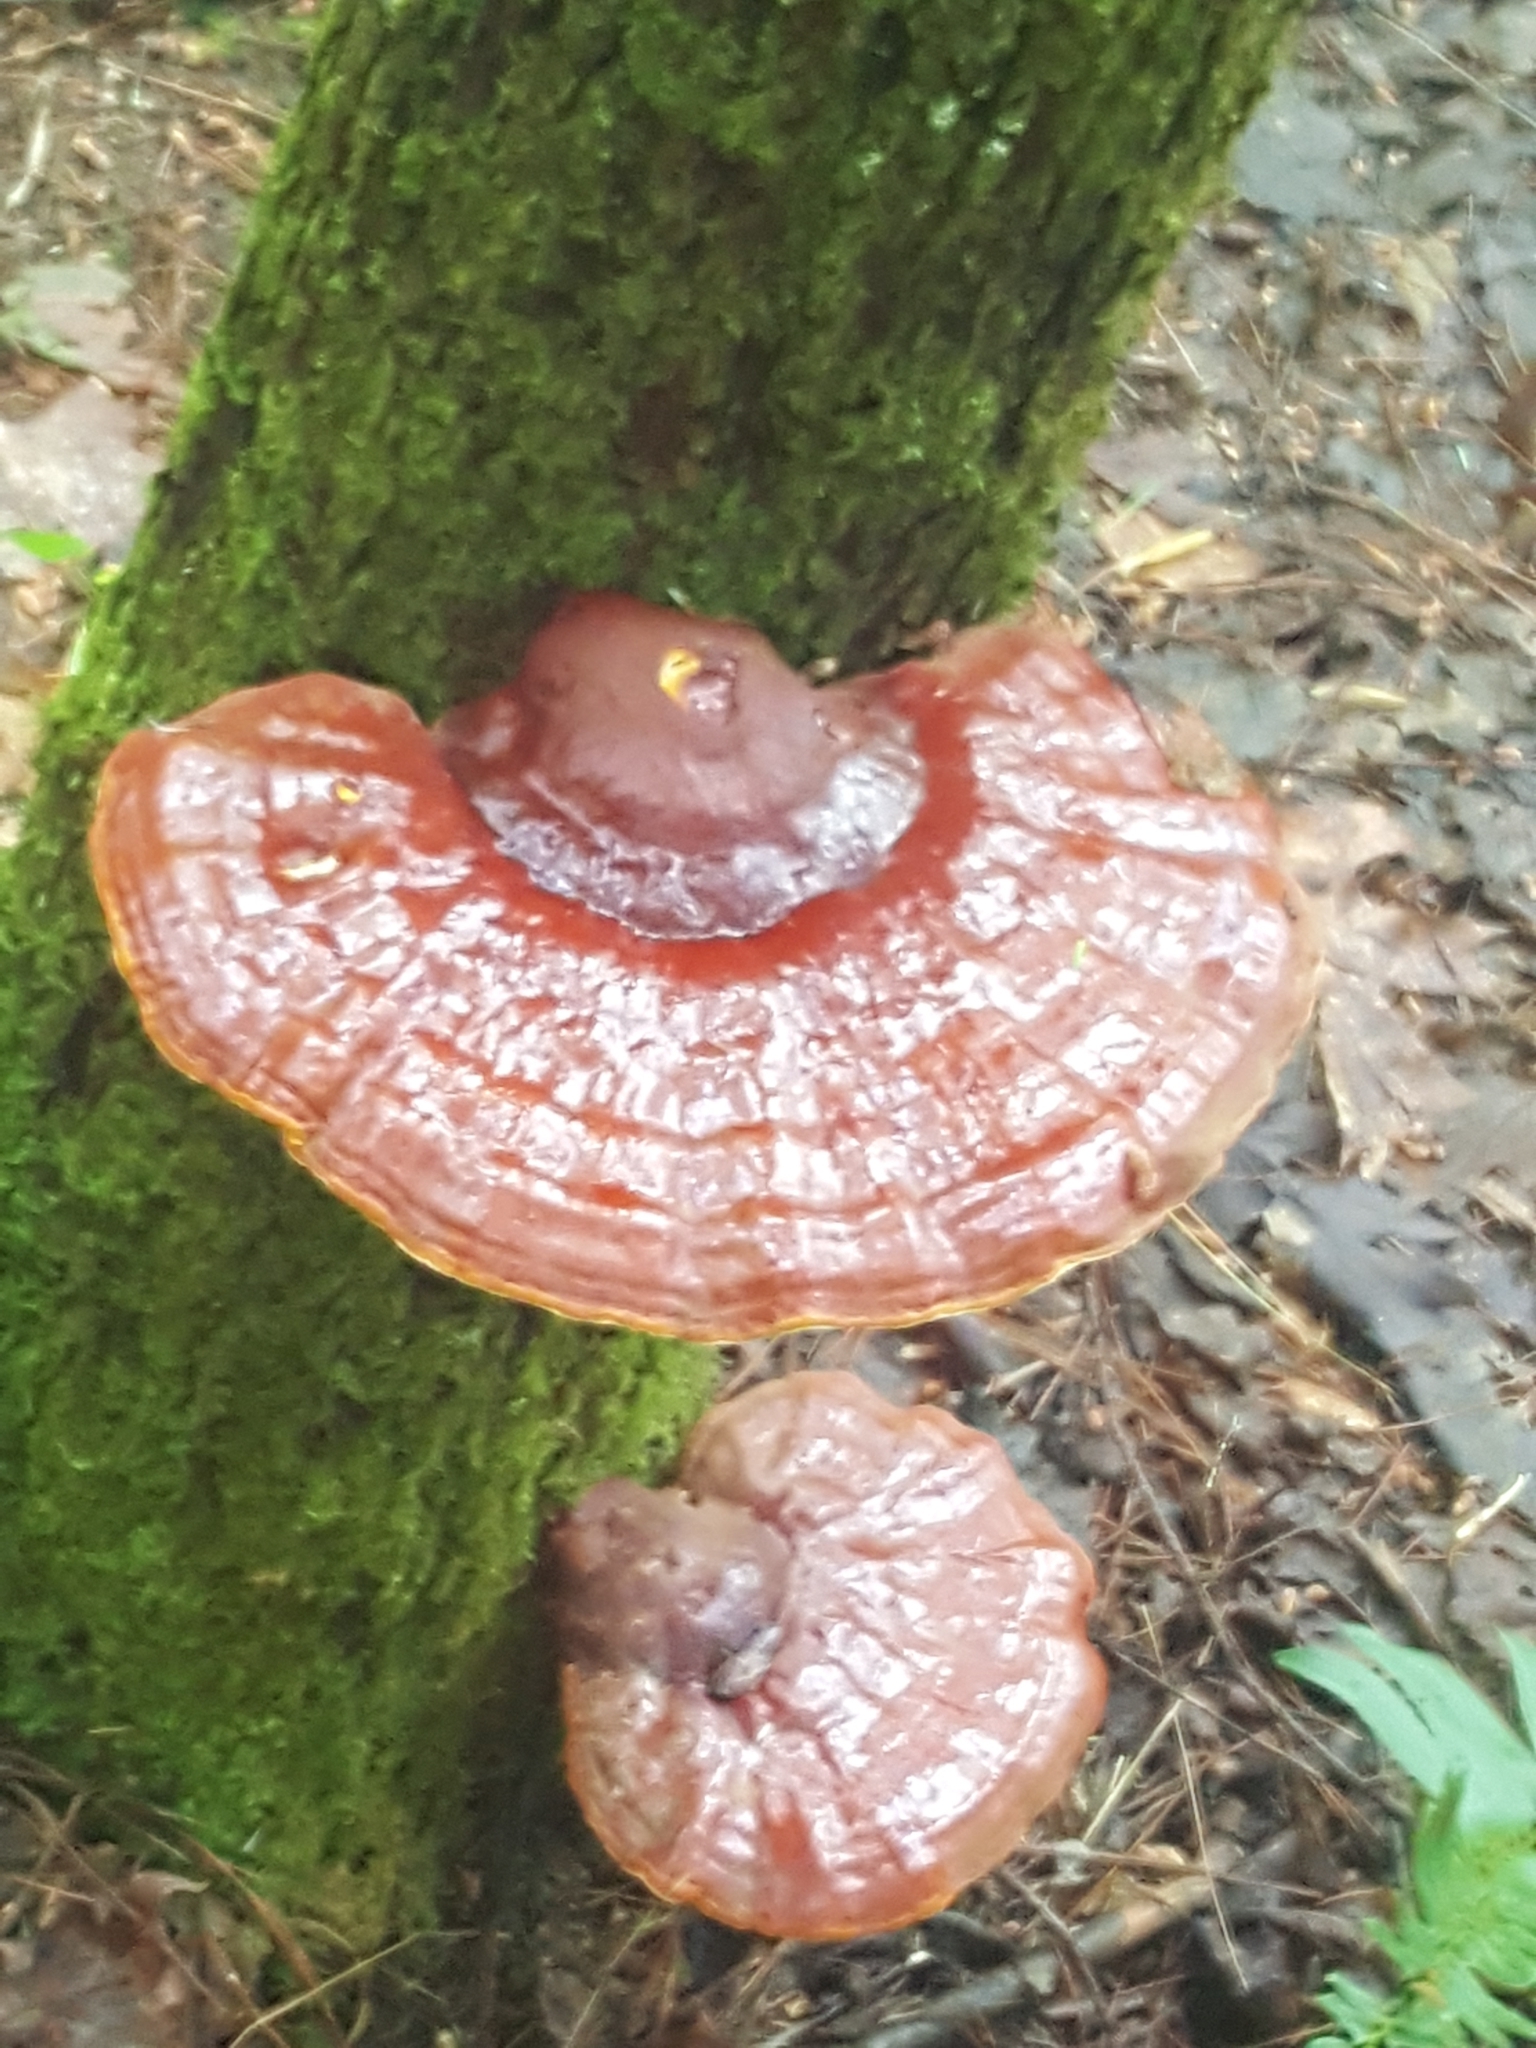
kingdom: Fungi
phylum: Basidiomycota
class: Agaricomycetes
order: Polyporales
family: Polyporaceae
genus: Ganoderma
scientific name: Ganoderma tsugae
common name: Hemlock varnish shelf
